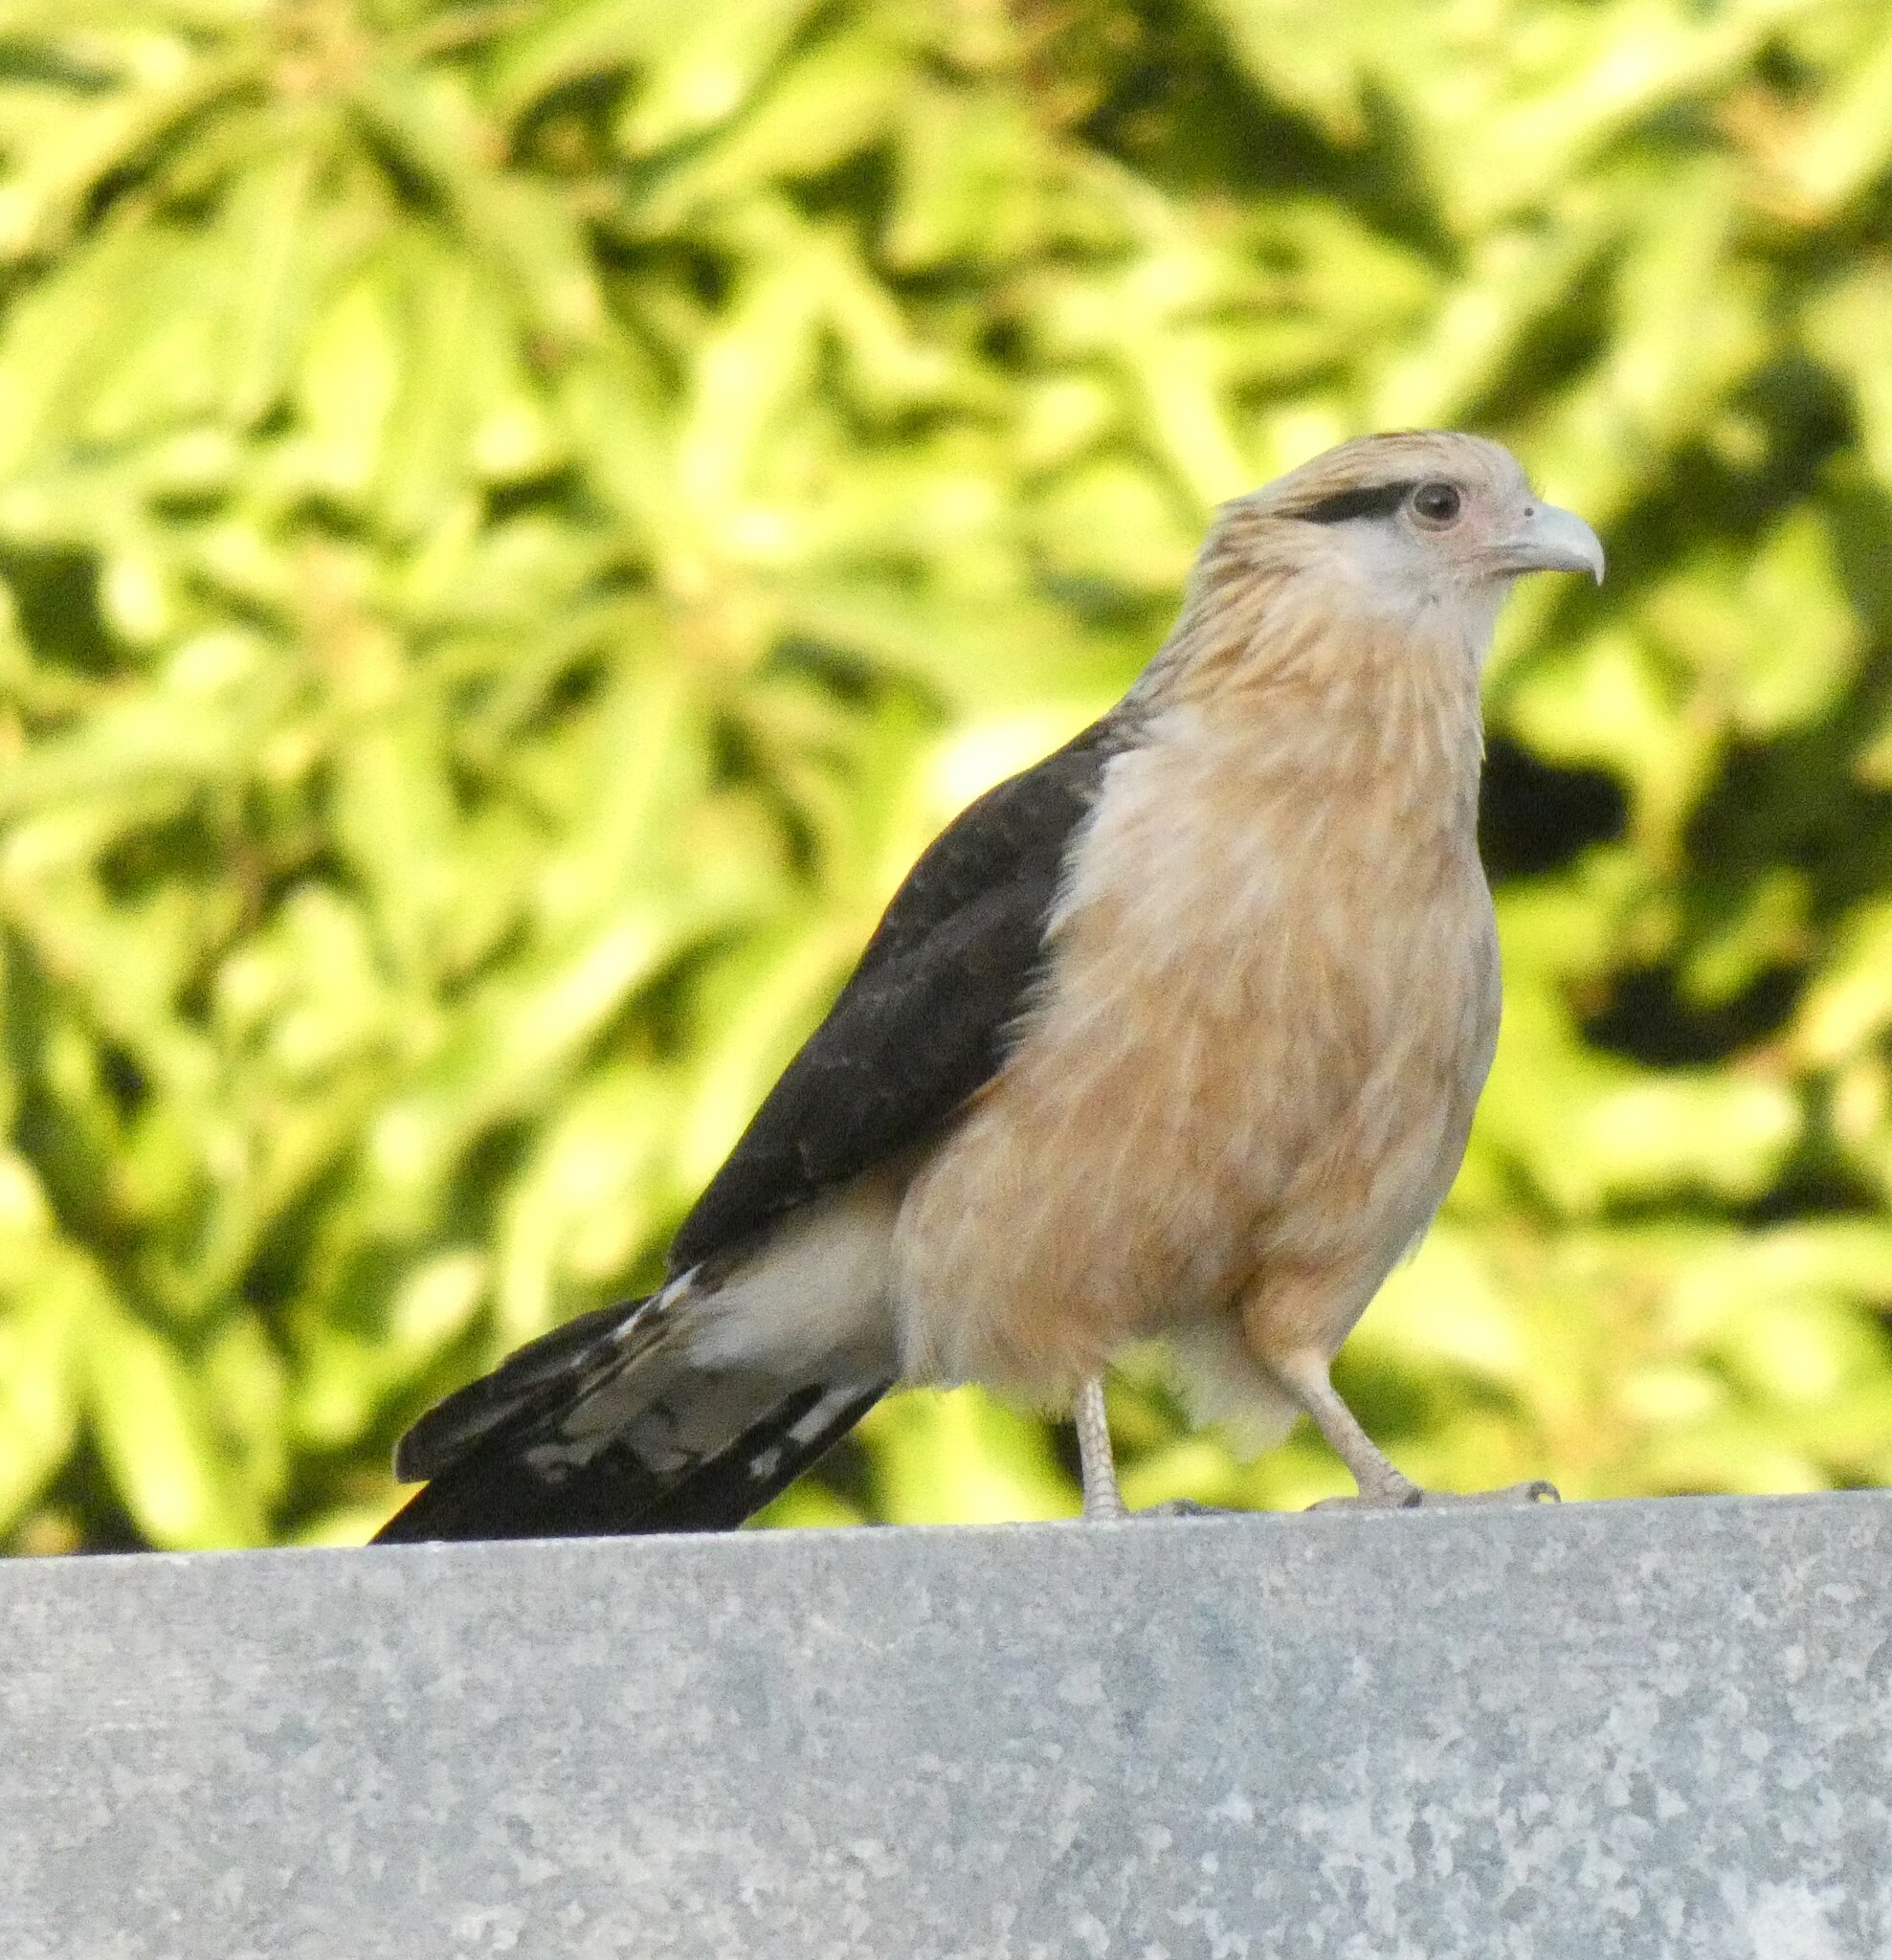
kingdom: Animalia
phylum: Chordata
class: Aves
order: Falconiformes
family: Falconidae
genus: Daptrius
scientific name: Daptrius
